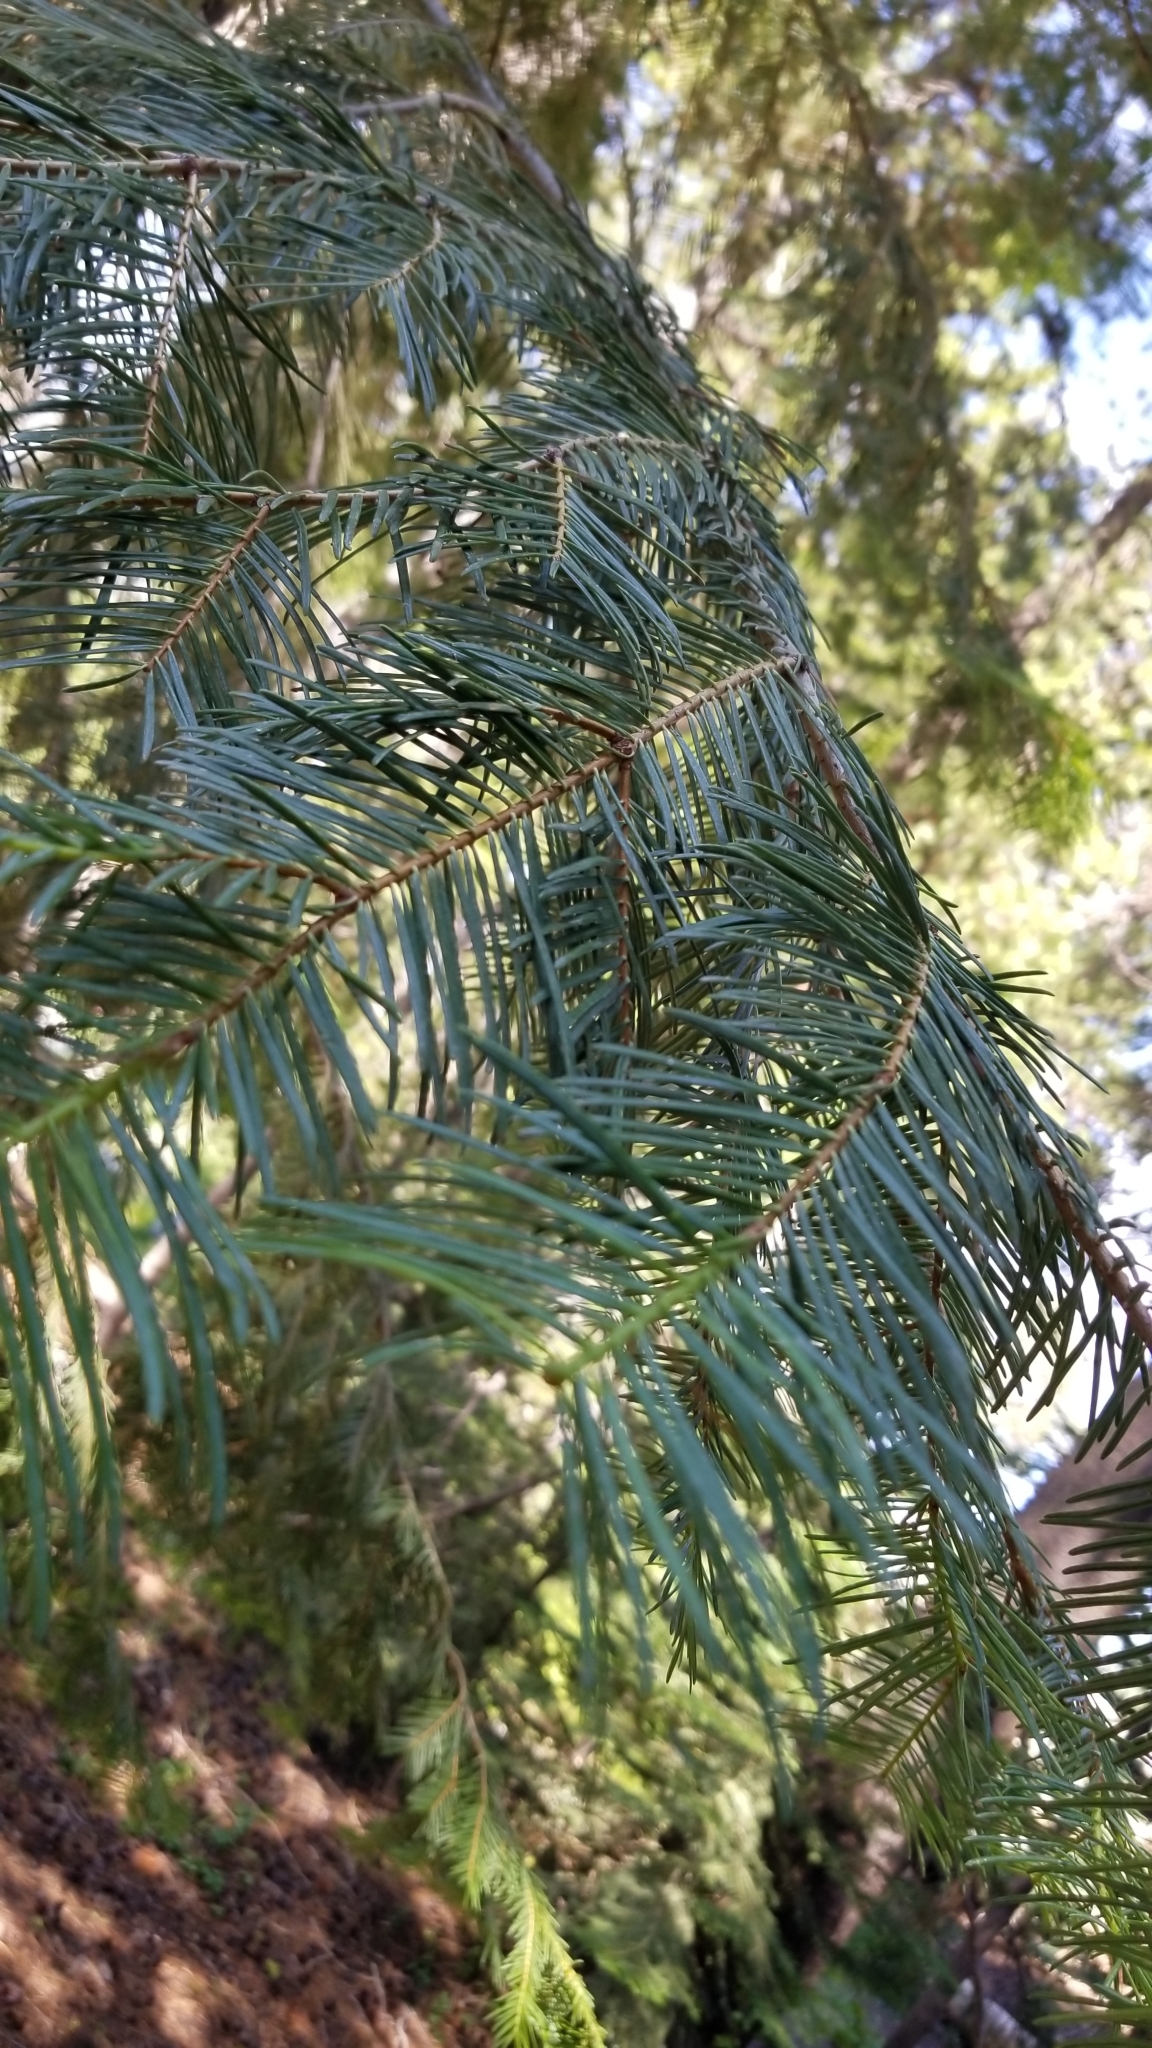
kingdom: Plantae
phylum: Tracheophyta
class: Pinopsida
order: Pinales
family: Pinaceae
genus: Abies
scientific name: Abies concolor
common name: Colorado fir
